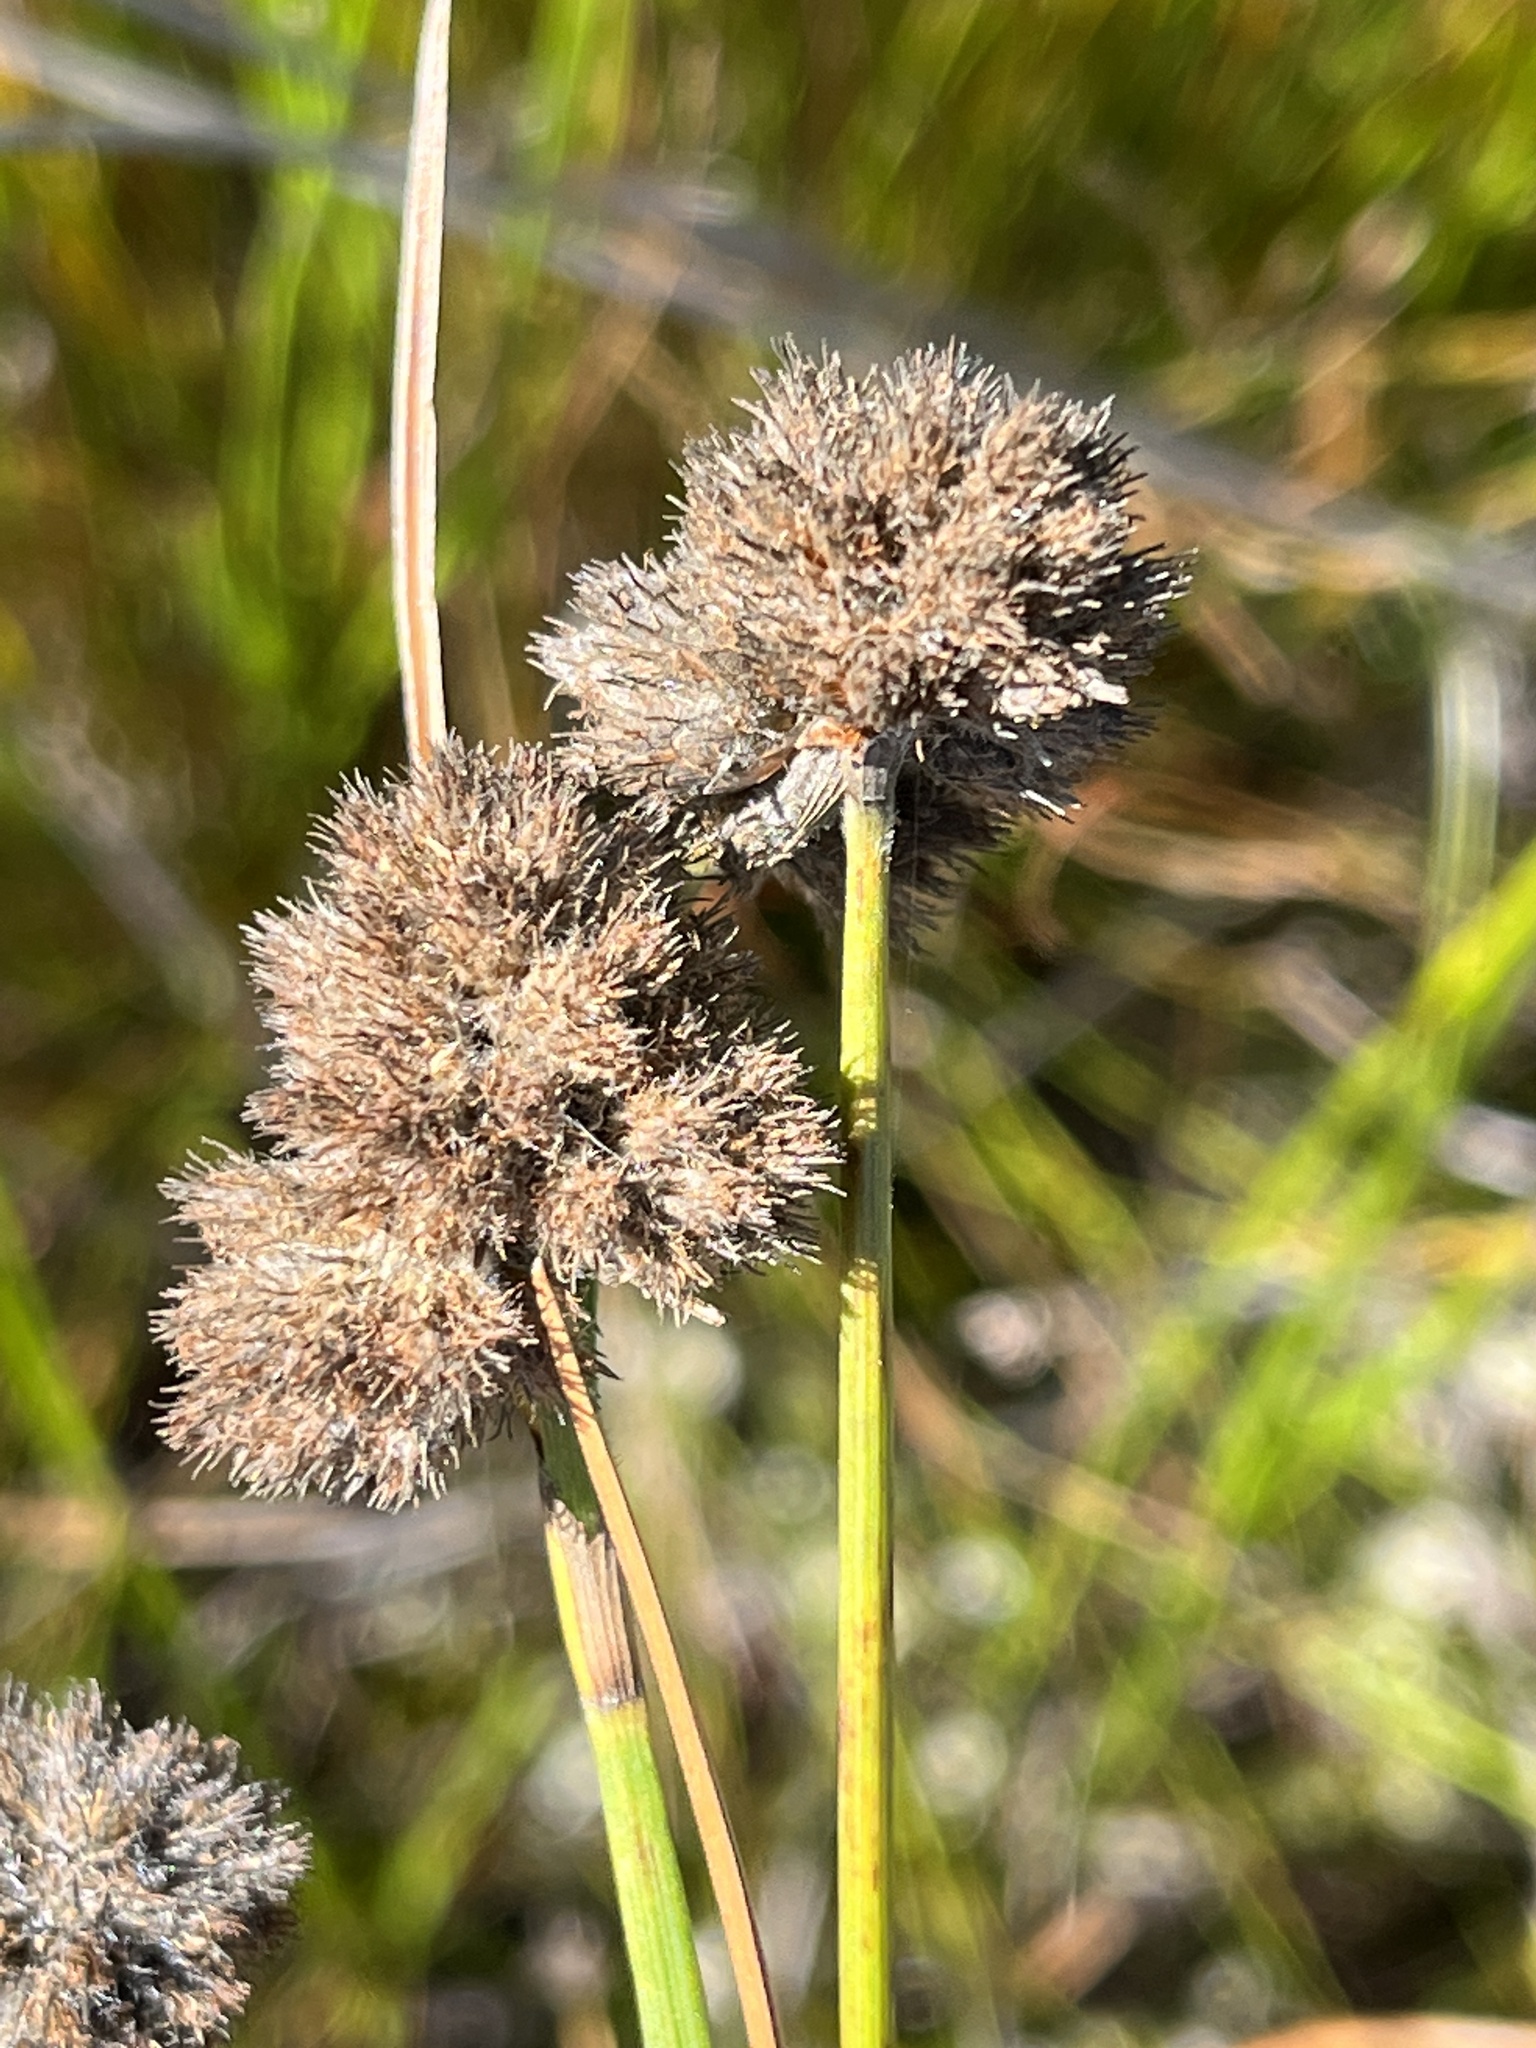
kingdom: Plantae
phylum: Tracheophyta
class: Liliopsida
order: Poales
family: Cyperaceae
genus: Fuirena
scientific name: Fuirena hirsuta
